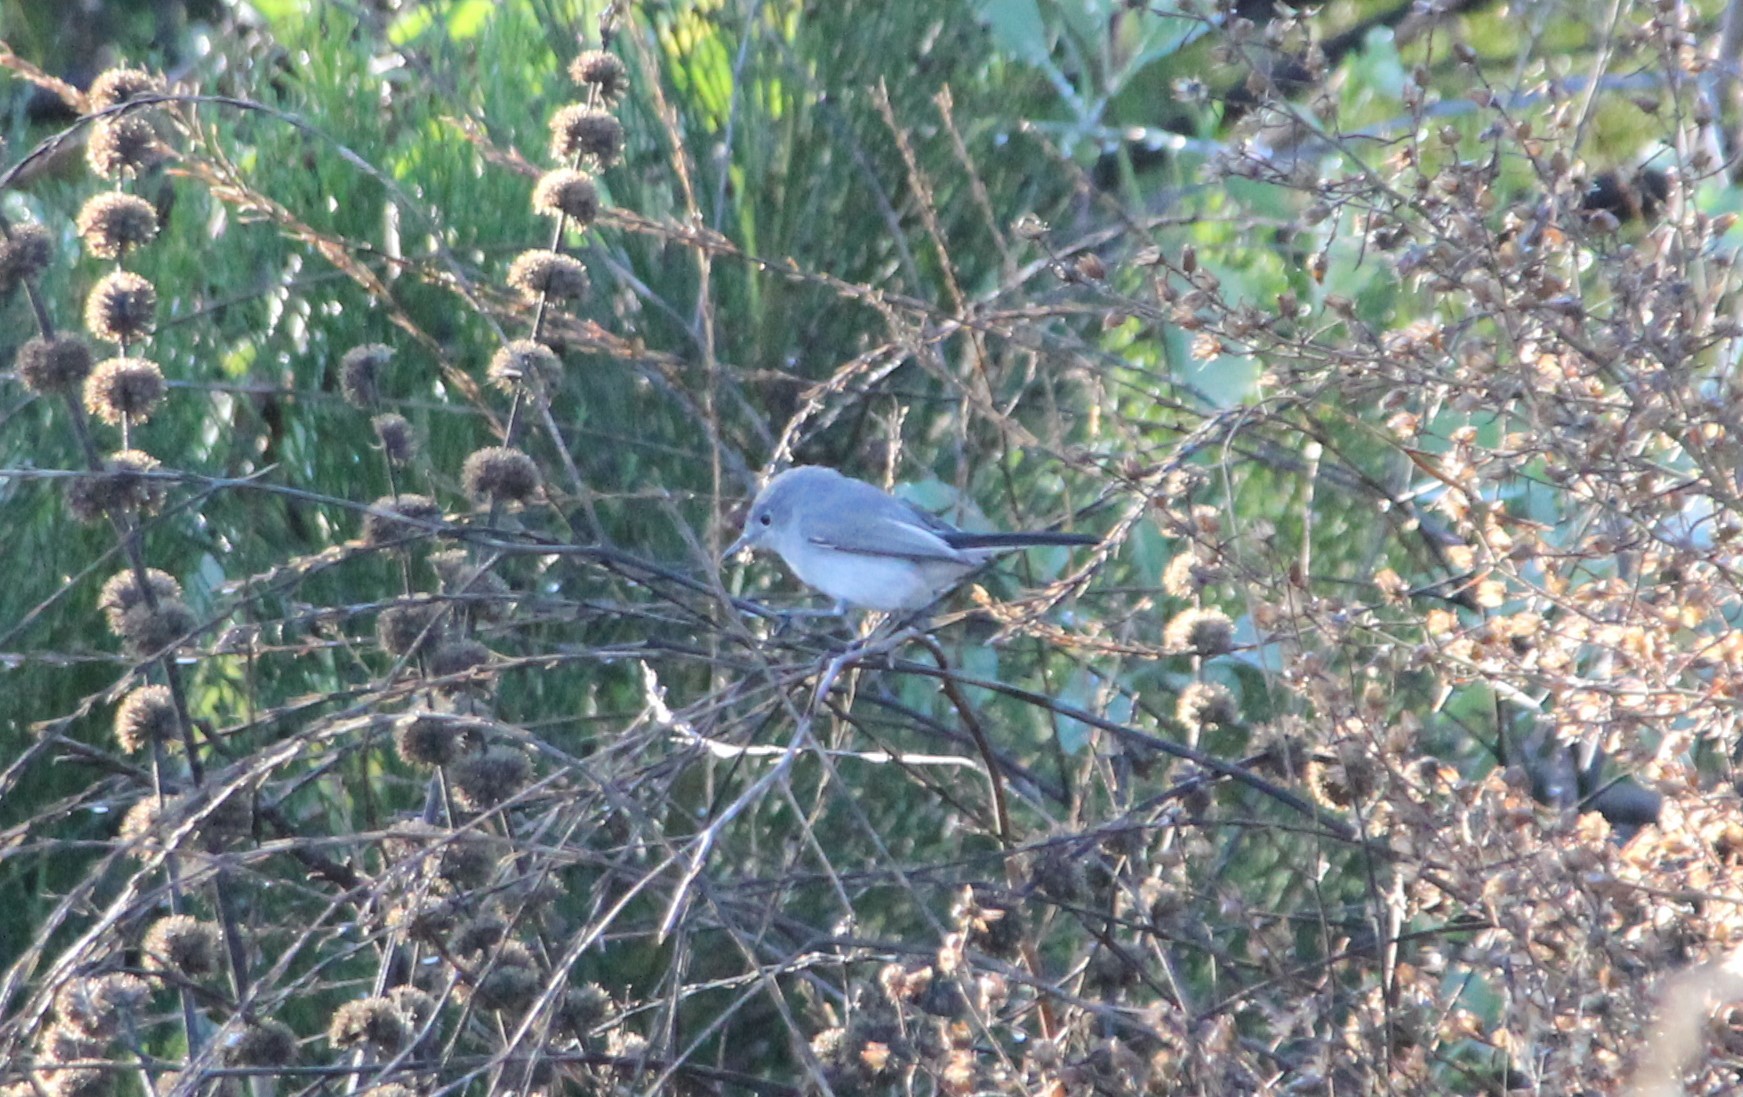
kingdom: Animalia
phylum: Chordata
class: Aves
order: Passeriformes
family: Polioptilidae
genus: Polioptila
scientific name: Polioptila caerulea
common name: Blue-gray gnatcatcher
